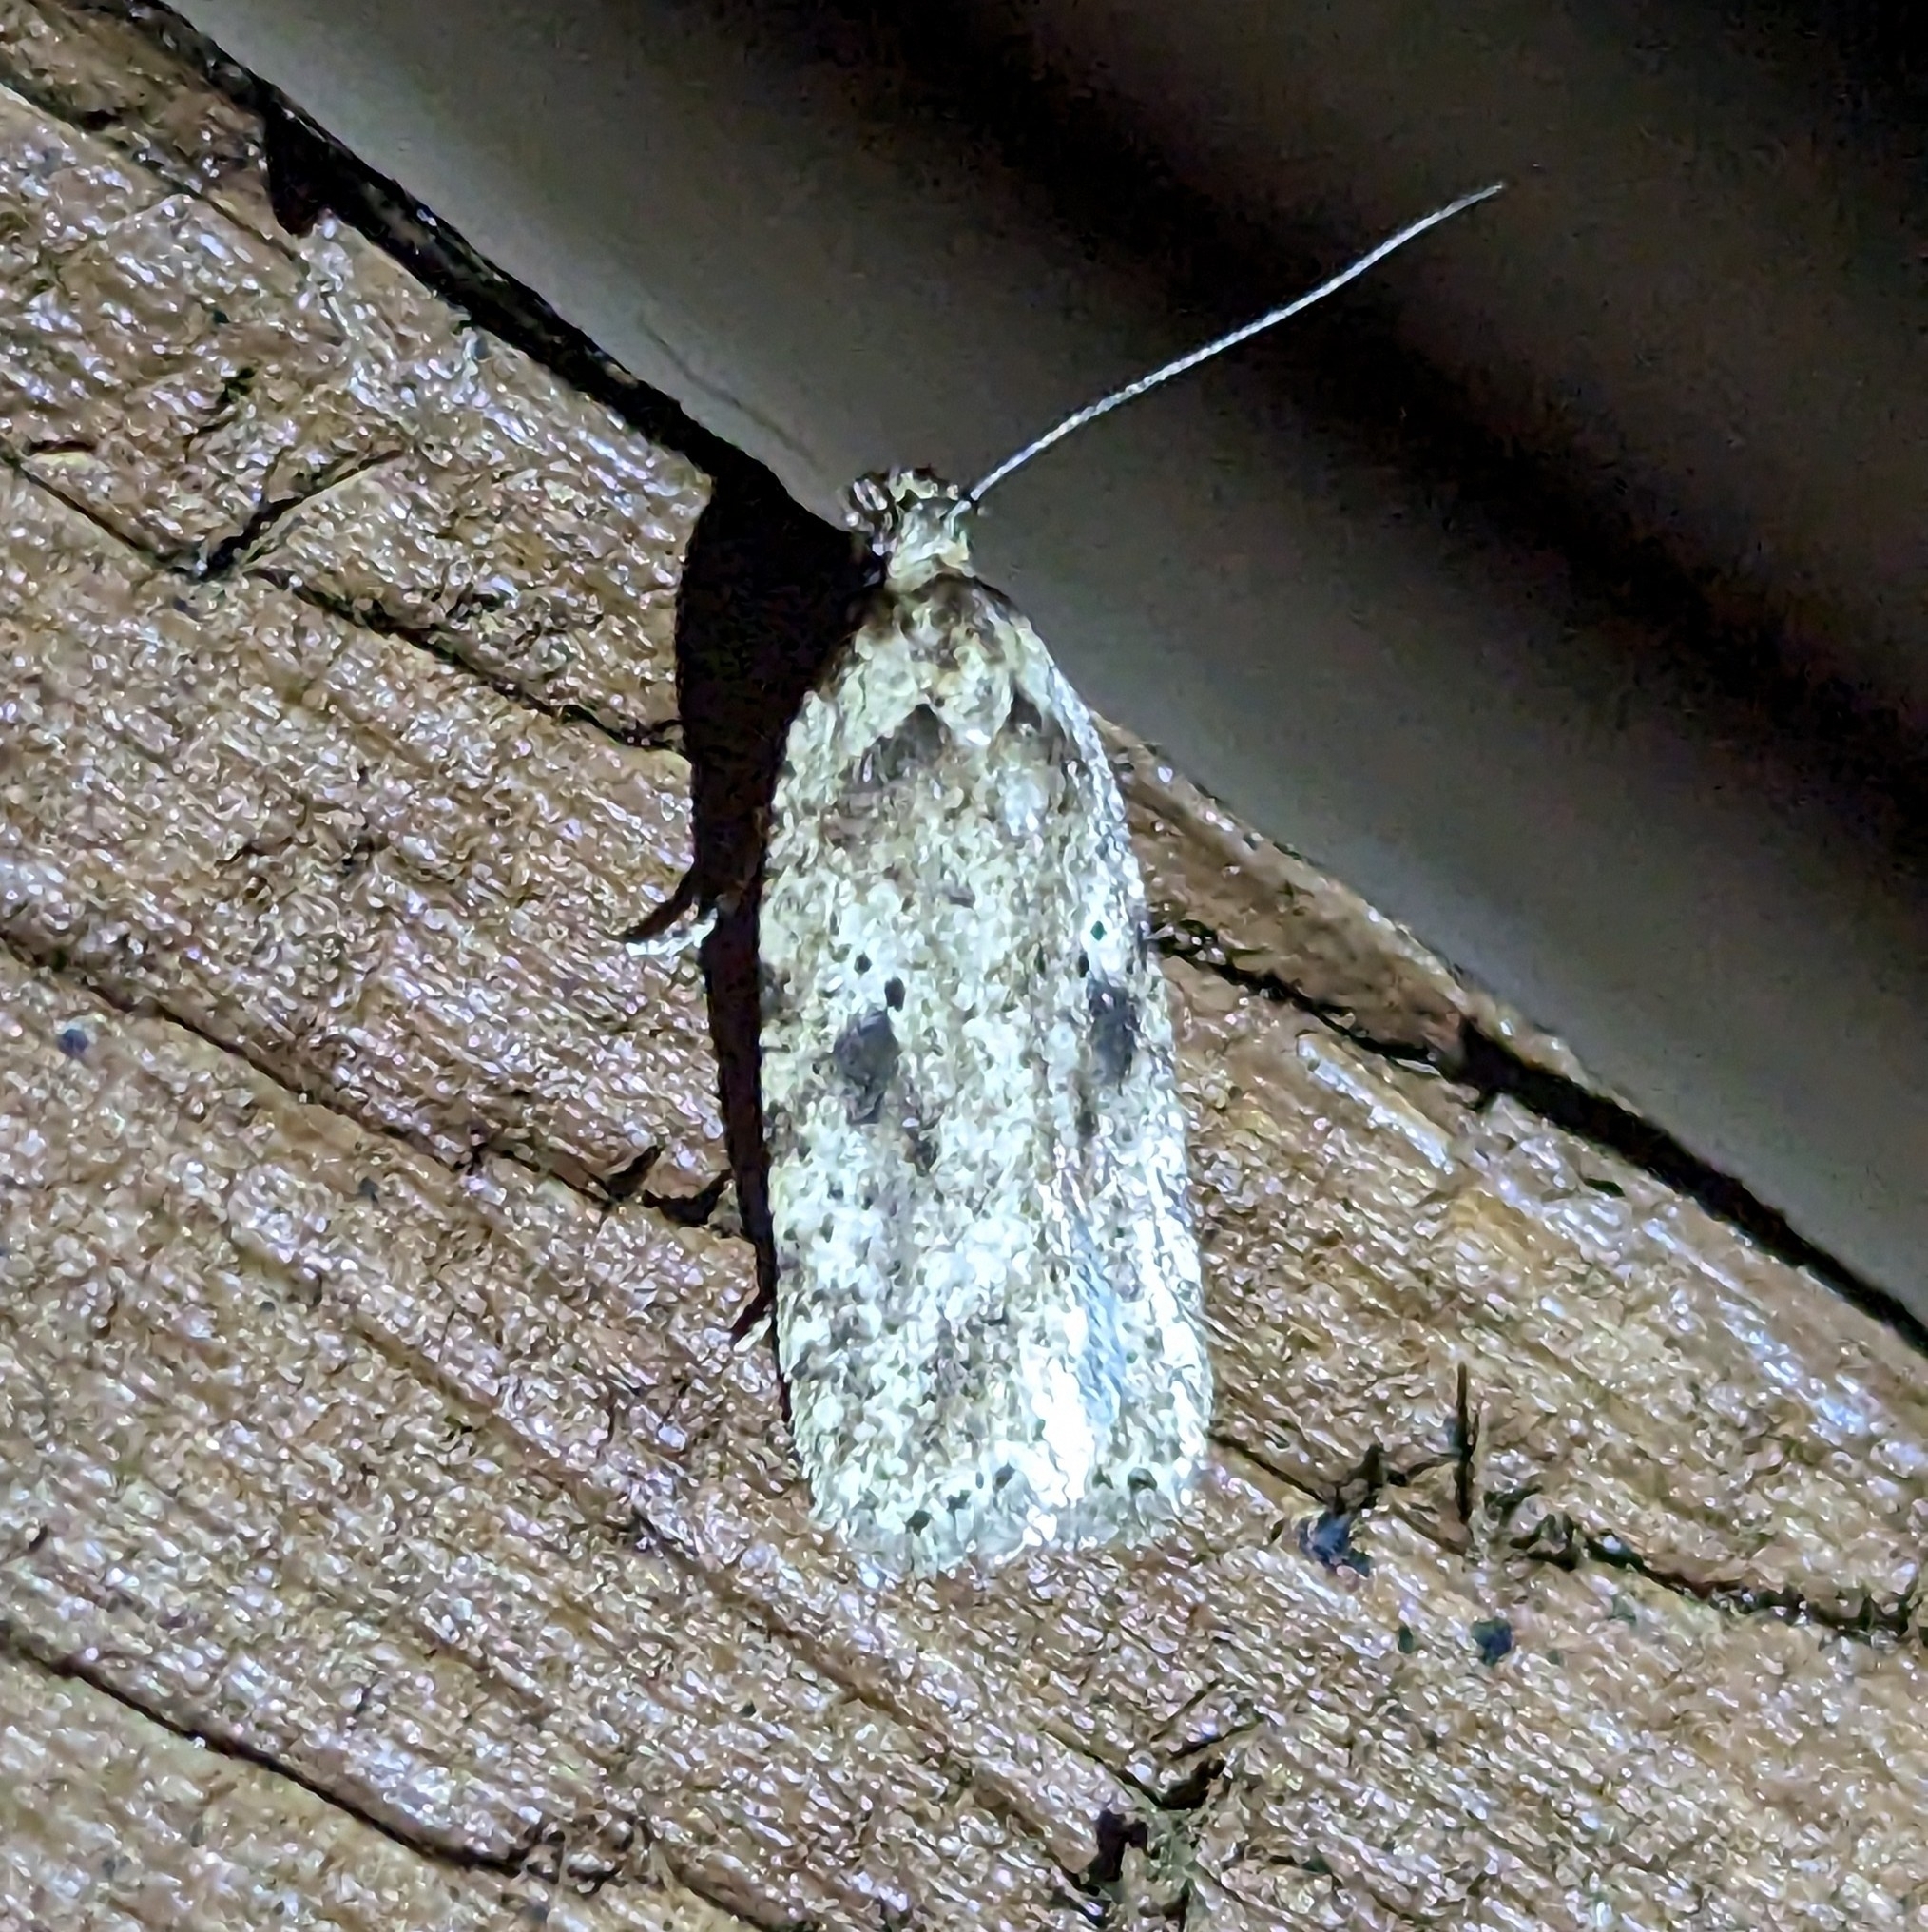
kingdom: Animalia
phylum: Arthropoda
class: Insecta
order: Lepidoptera
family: Depressariidae
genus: Agonopterix
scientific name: Agonopterix canadensis
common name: Canadian agonopterix moth
